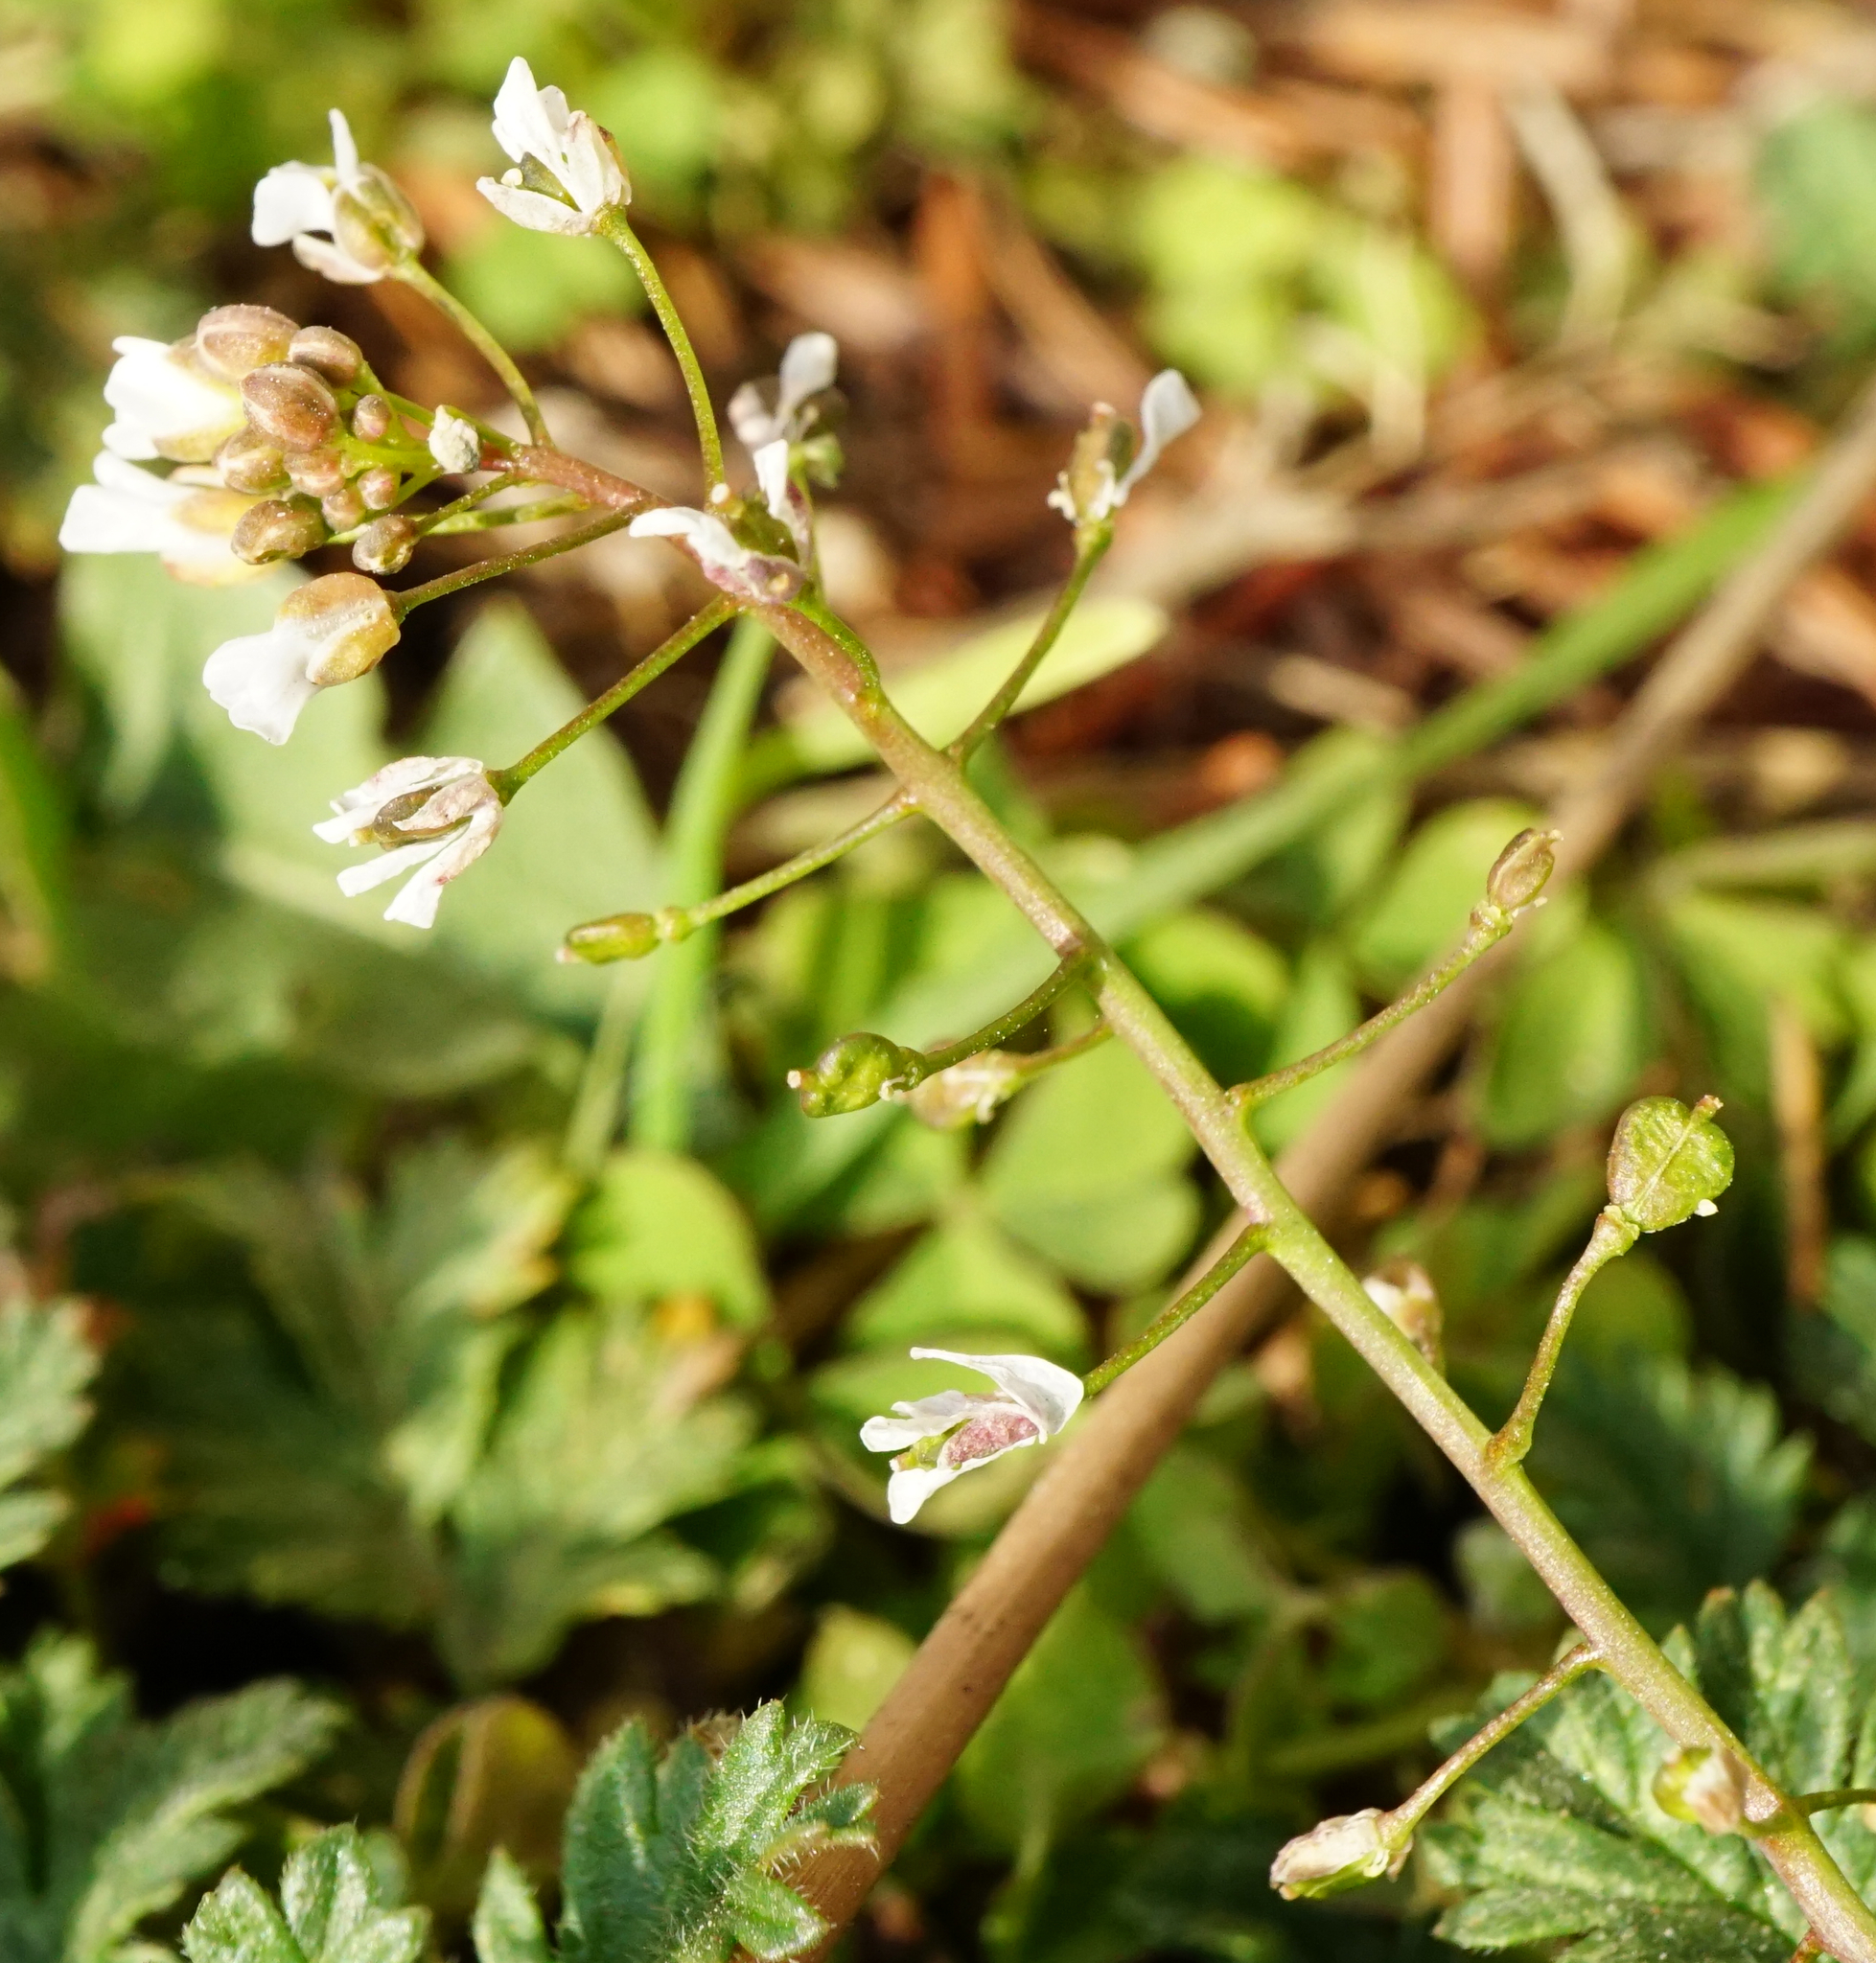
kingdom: Plantae
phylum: Tracheophyta
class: Magnoliopsida
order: Brassicales
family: Brassicaceae
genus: Capsella
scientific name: Capsella bursa-pastoris
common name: Shepherd's purse
